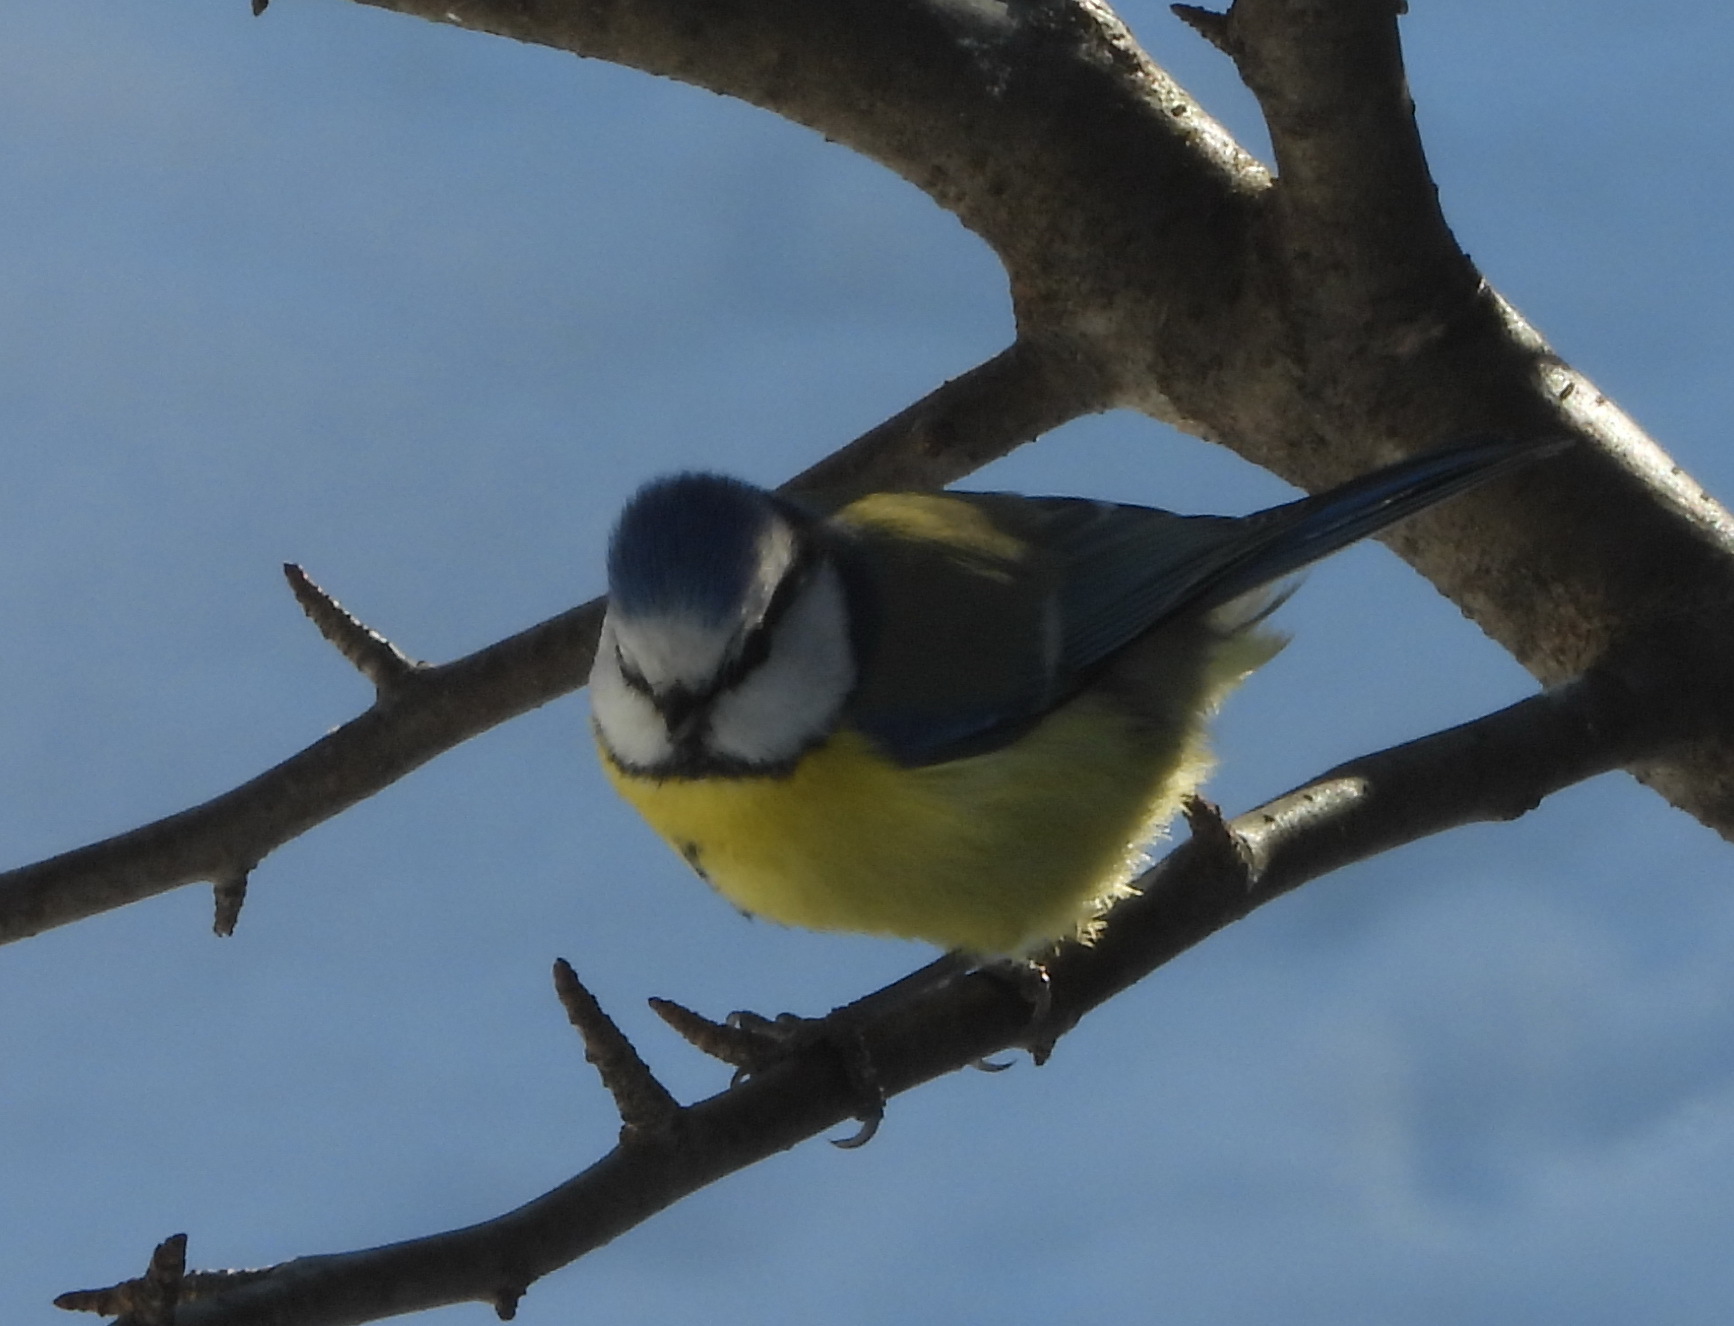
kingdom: Animalia
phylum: Chordata
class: Aves
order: Passeriformes
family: Paridae
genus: Cyanistes
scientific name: Cyanistes caeruleus
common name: Eurasian blue tit
